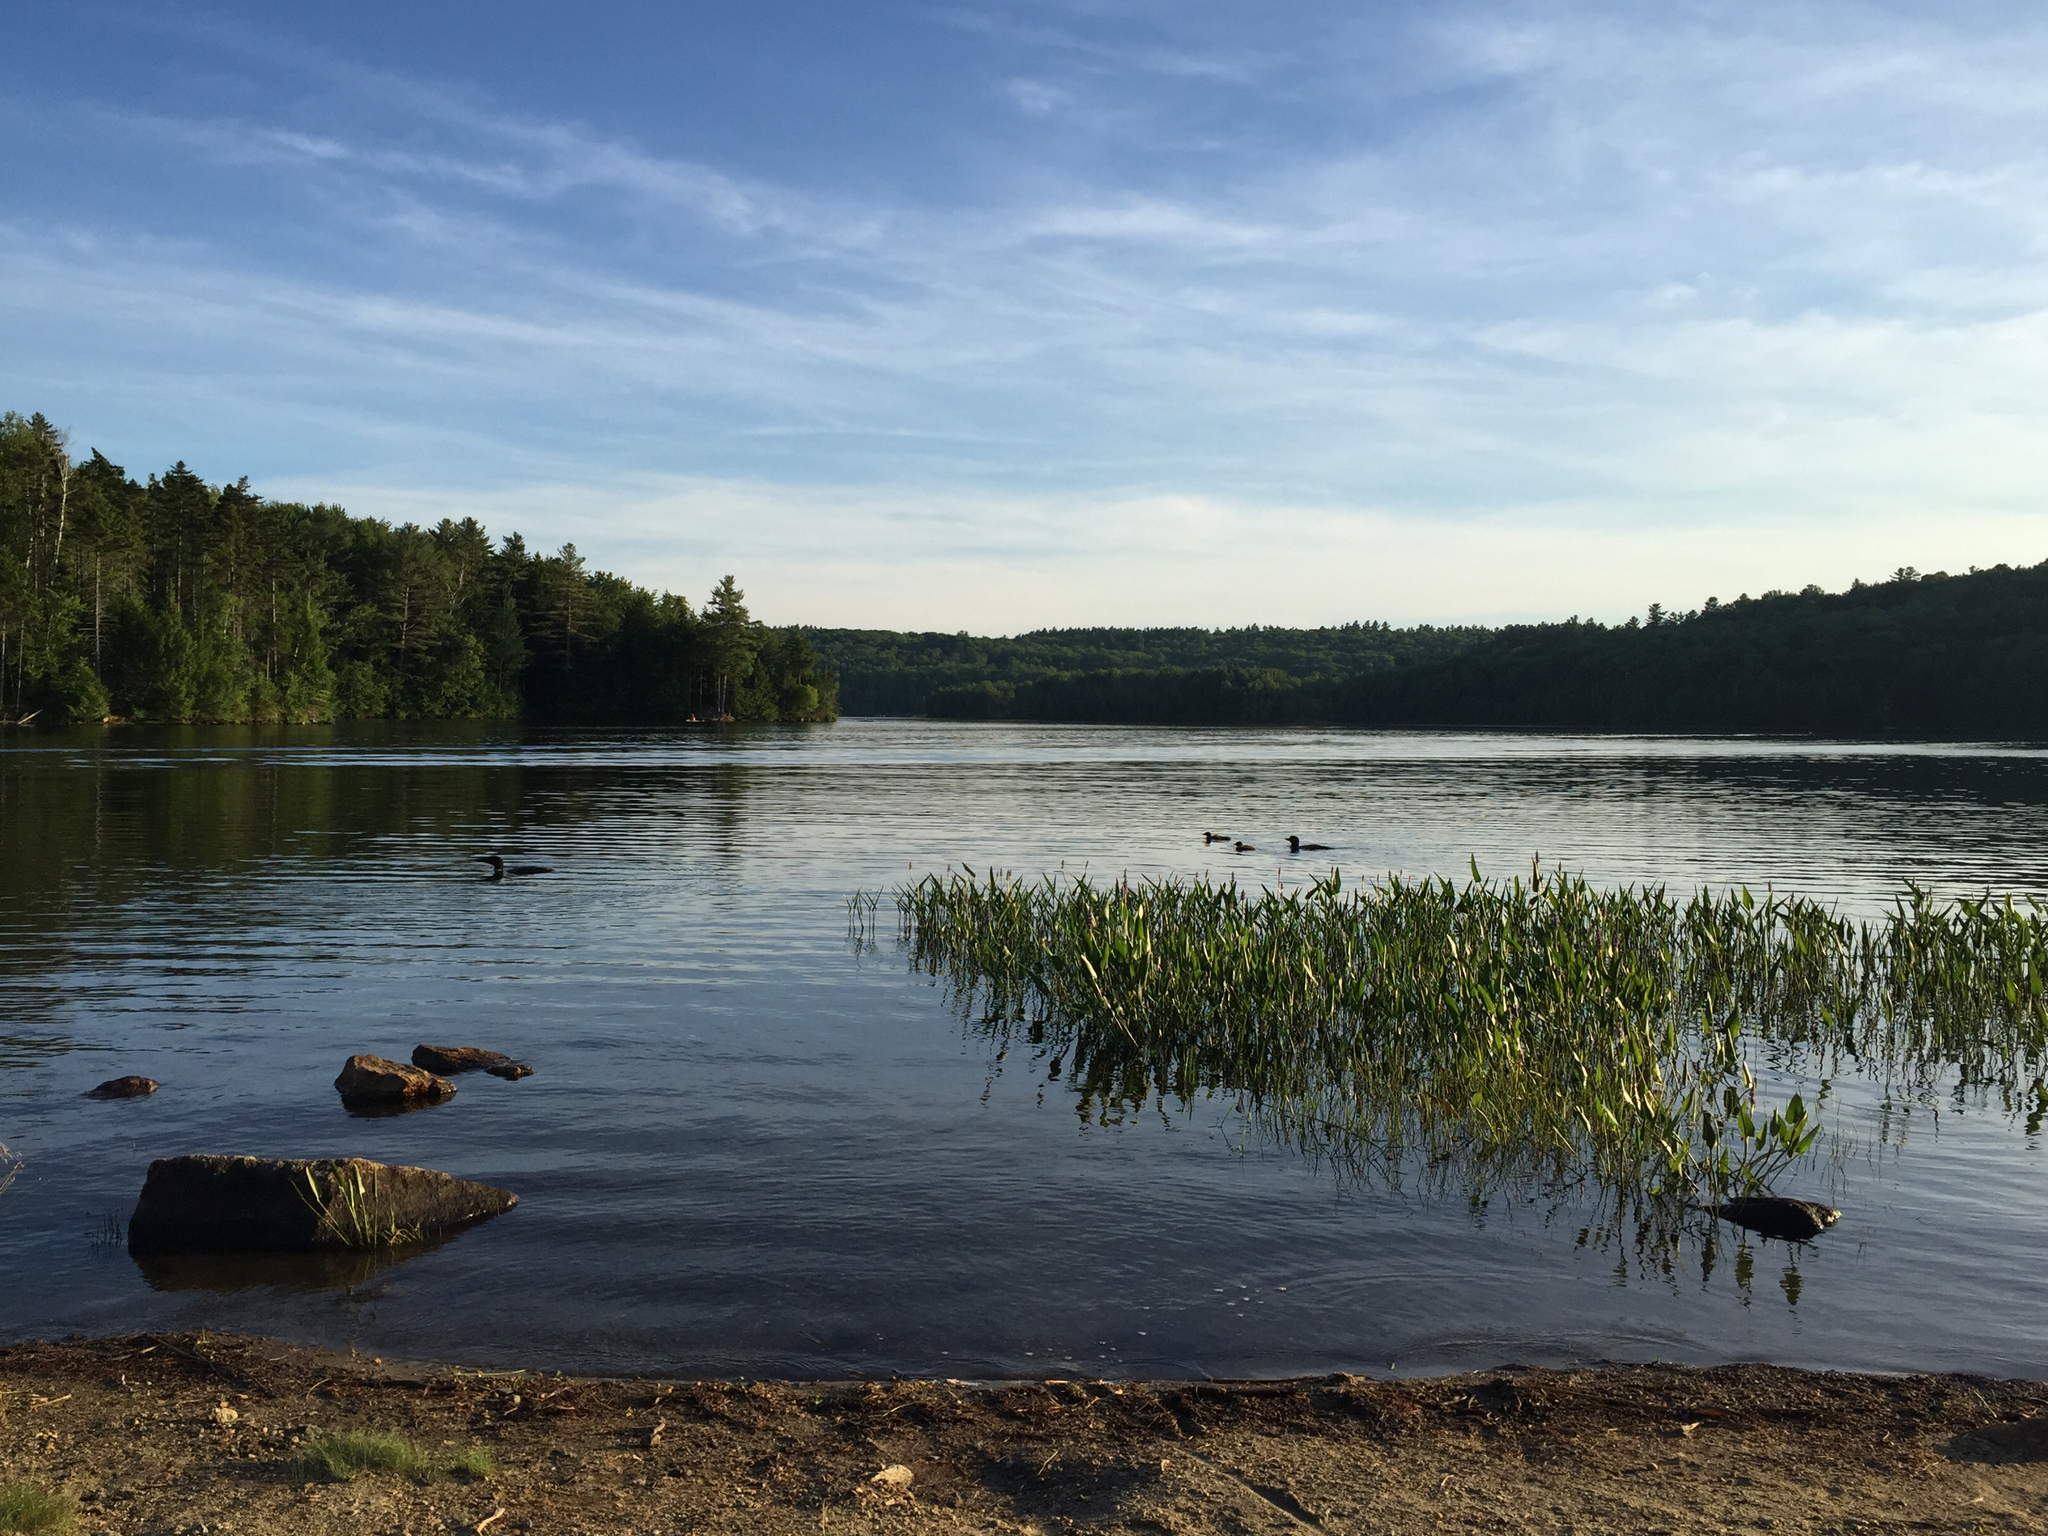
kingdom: Animalia
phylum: Chordata
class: Aves
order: Gaviiformes
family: Gaviidae
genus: Gavia
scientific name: Gavia immer
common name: Common loon
